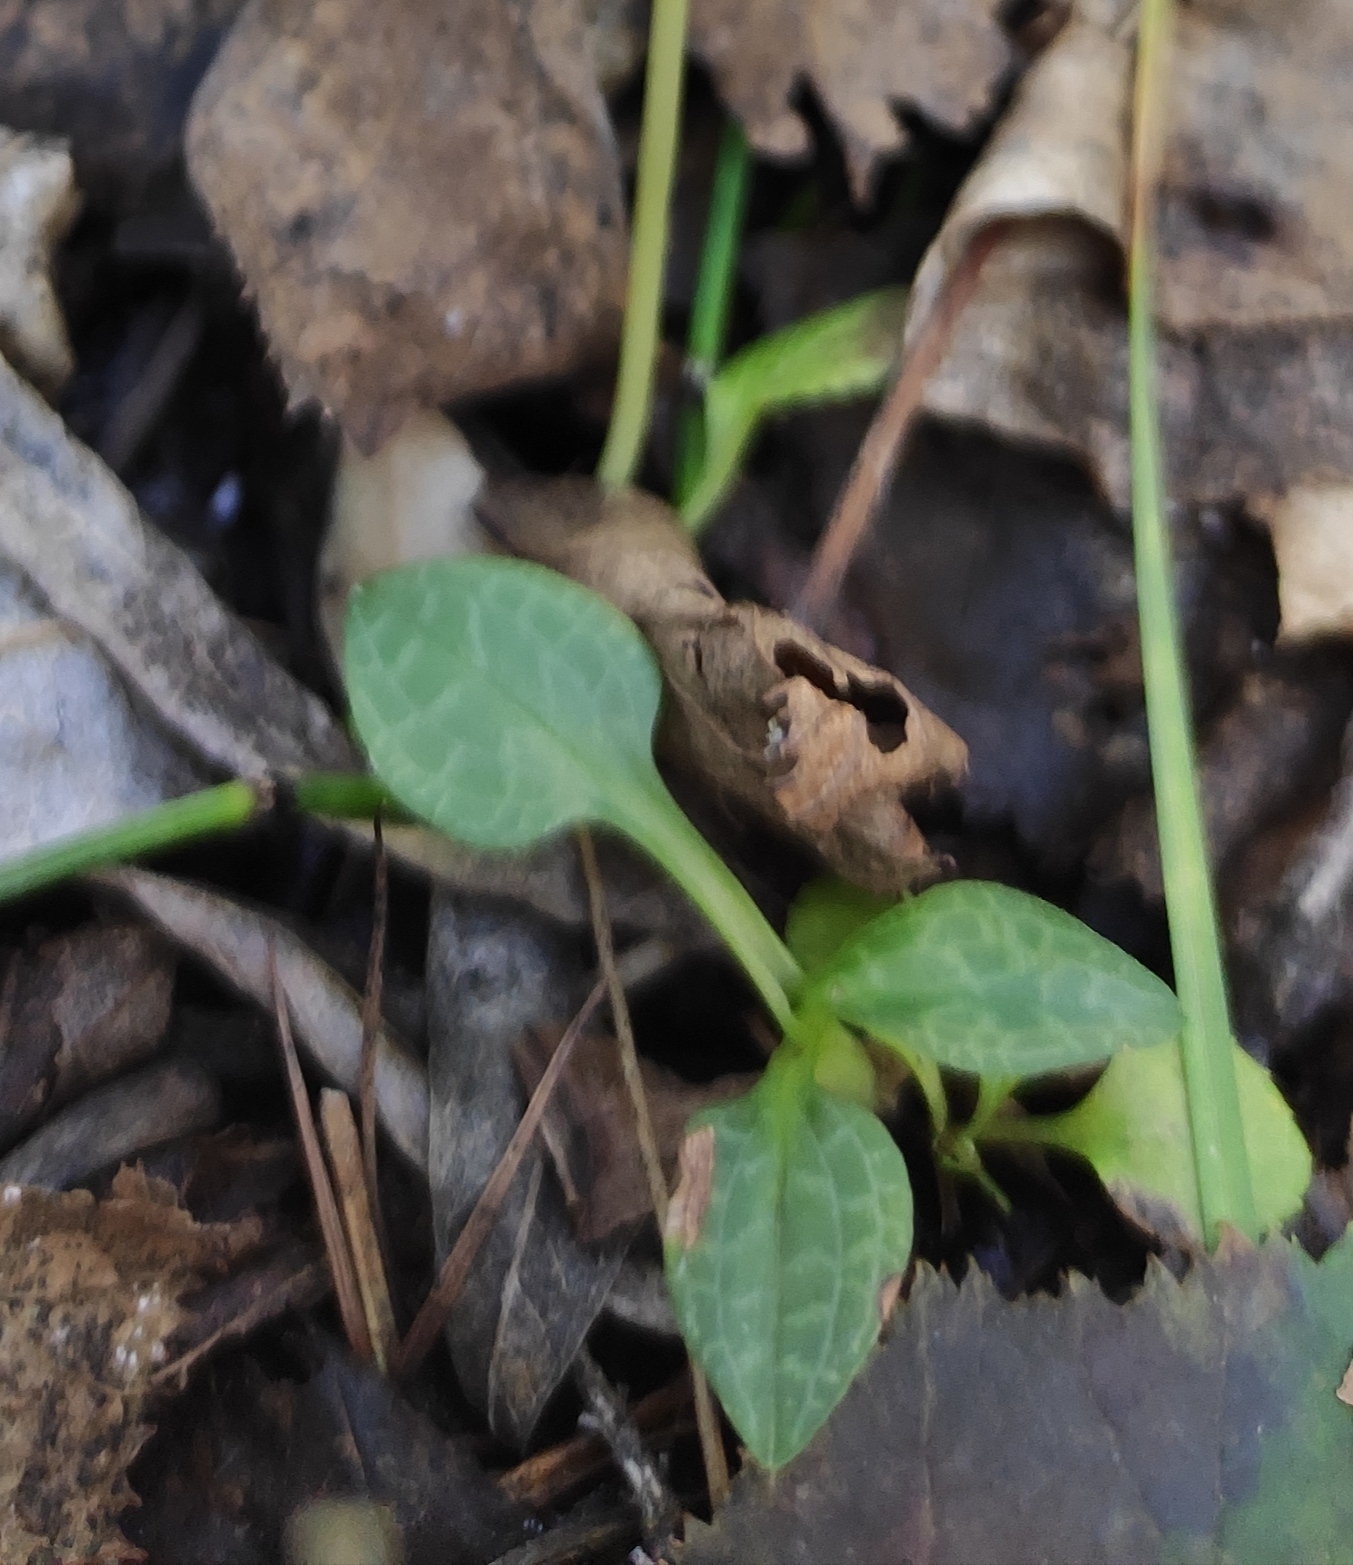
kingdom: Plantae
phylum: Tracheophyta
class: Liliopsida
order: Asparagales
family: Orchidaceae
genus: Goodyera
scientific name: Goodyera repens
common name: Creeping lady's-tresses
